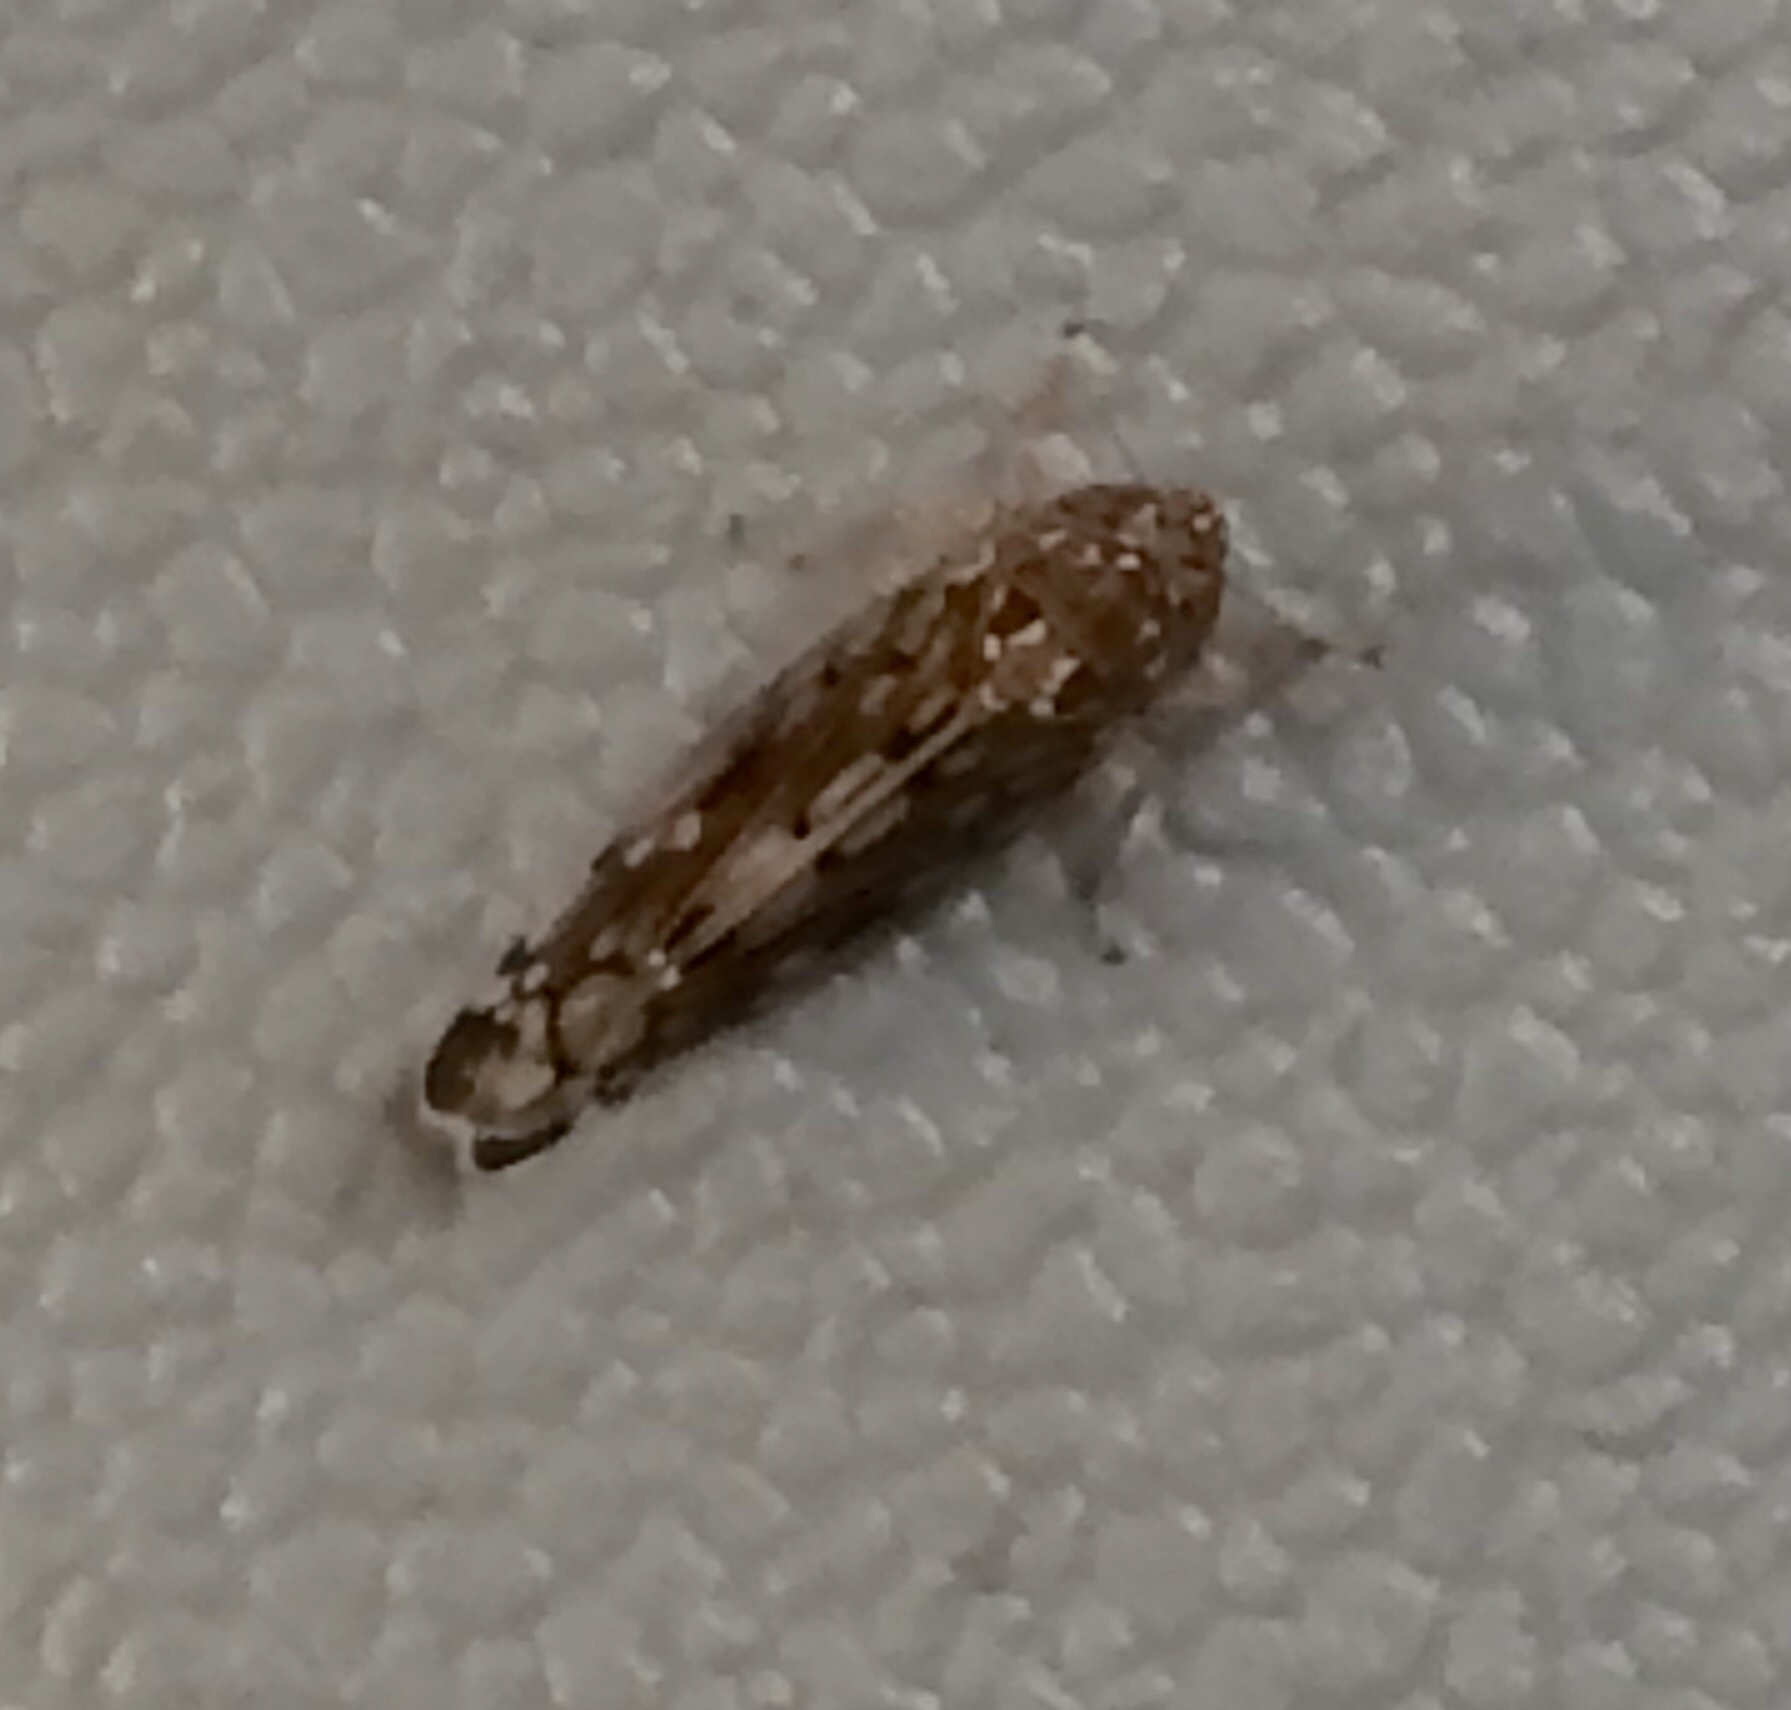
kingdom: Animalia
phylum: Arthropoda
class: Insecta
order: Hemiptera
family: Cicadellidae
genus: Osbornellus
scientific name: Osbornellus borealis
